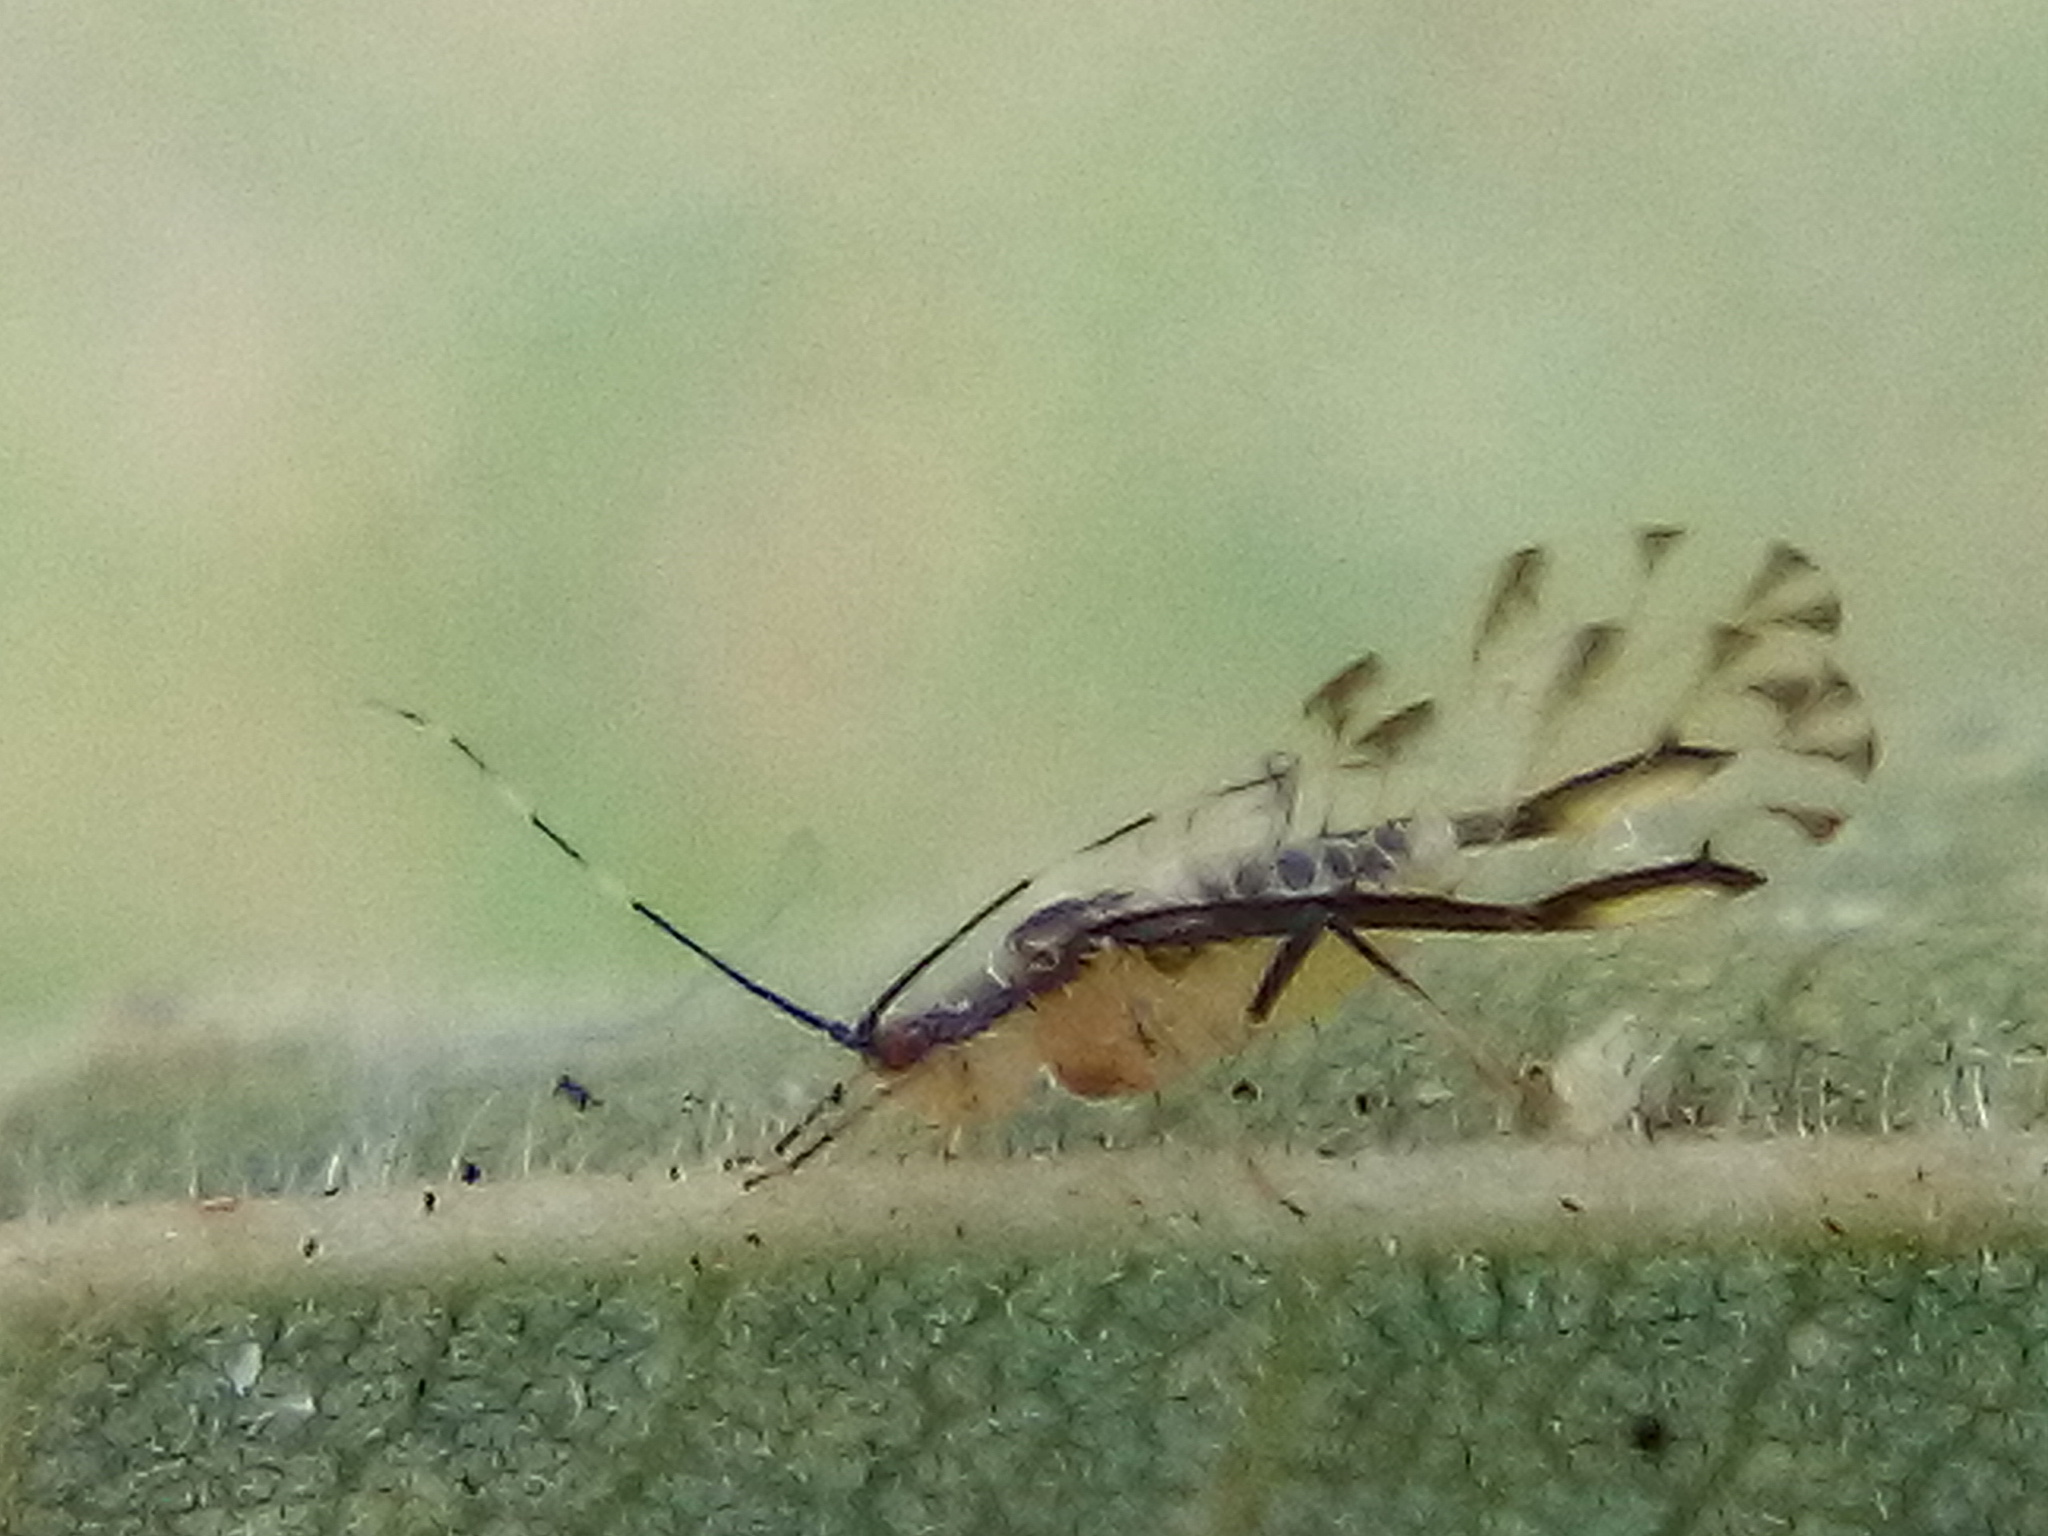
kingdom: Animalia
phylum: Arthropoda
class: Insecta
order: Hemiptera
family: Aphididae
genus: Eucallipterus
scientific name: Eucallipterus tiliae
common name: Aphid
